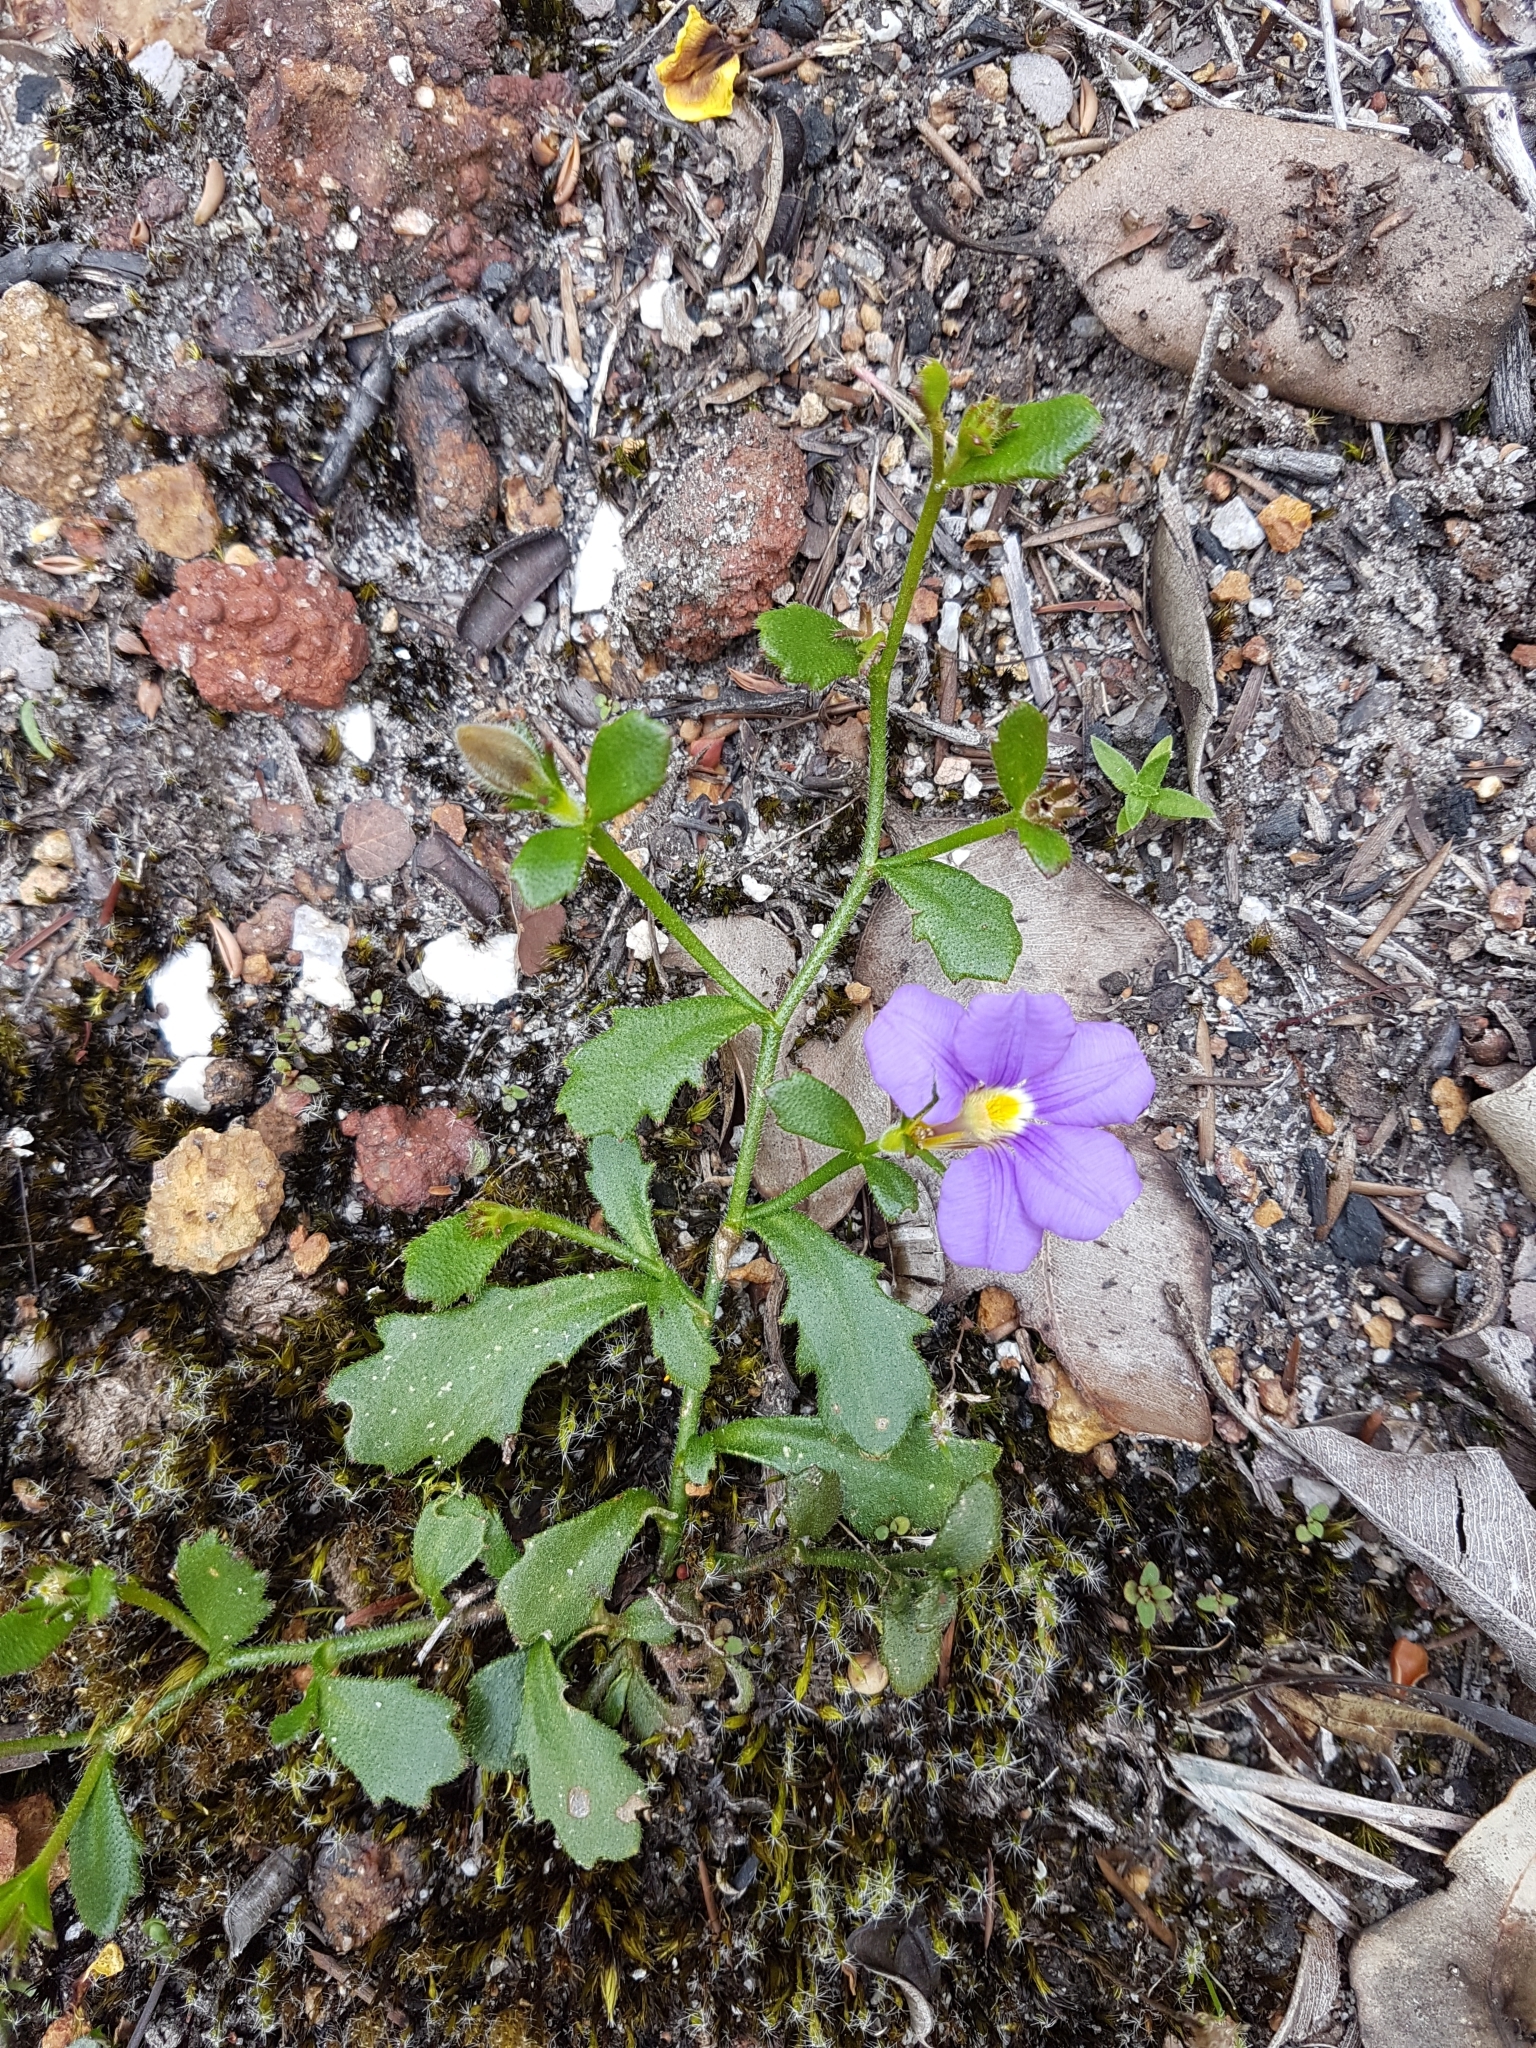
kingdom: Plantae
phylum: Tracheophyta
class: Magnoliopsida
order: Asterales
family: Goodeniaceae
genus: Scaevola
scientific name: Scaevola striata
